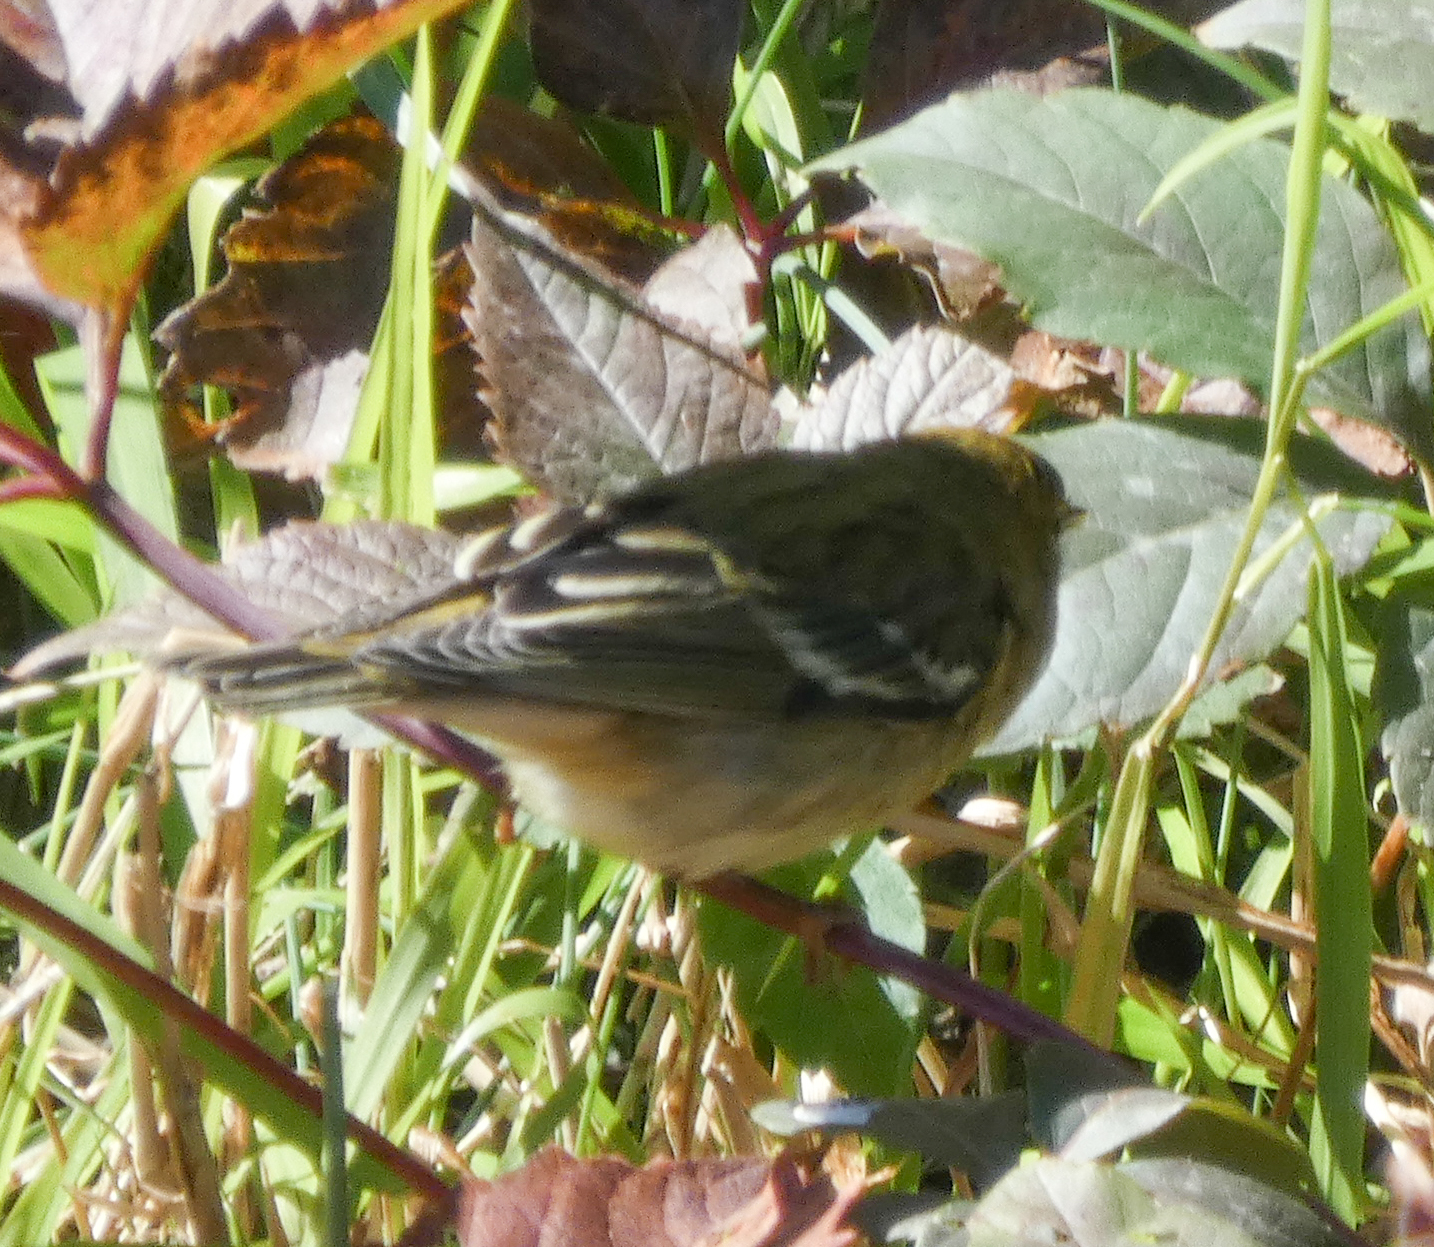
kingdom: Animalia
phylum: Chordata
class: Aves
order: Passeriformes
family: Parulidae
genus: Setophaga
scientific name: Setophaga striata
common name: Blackpoll warbler
